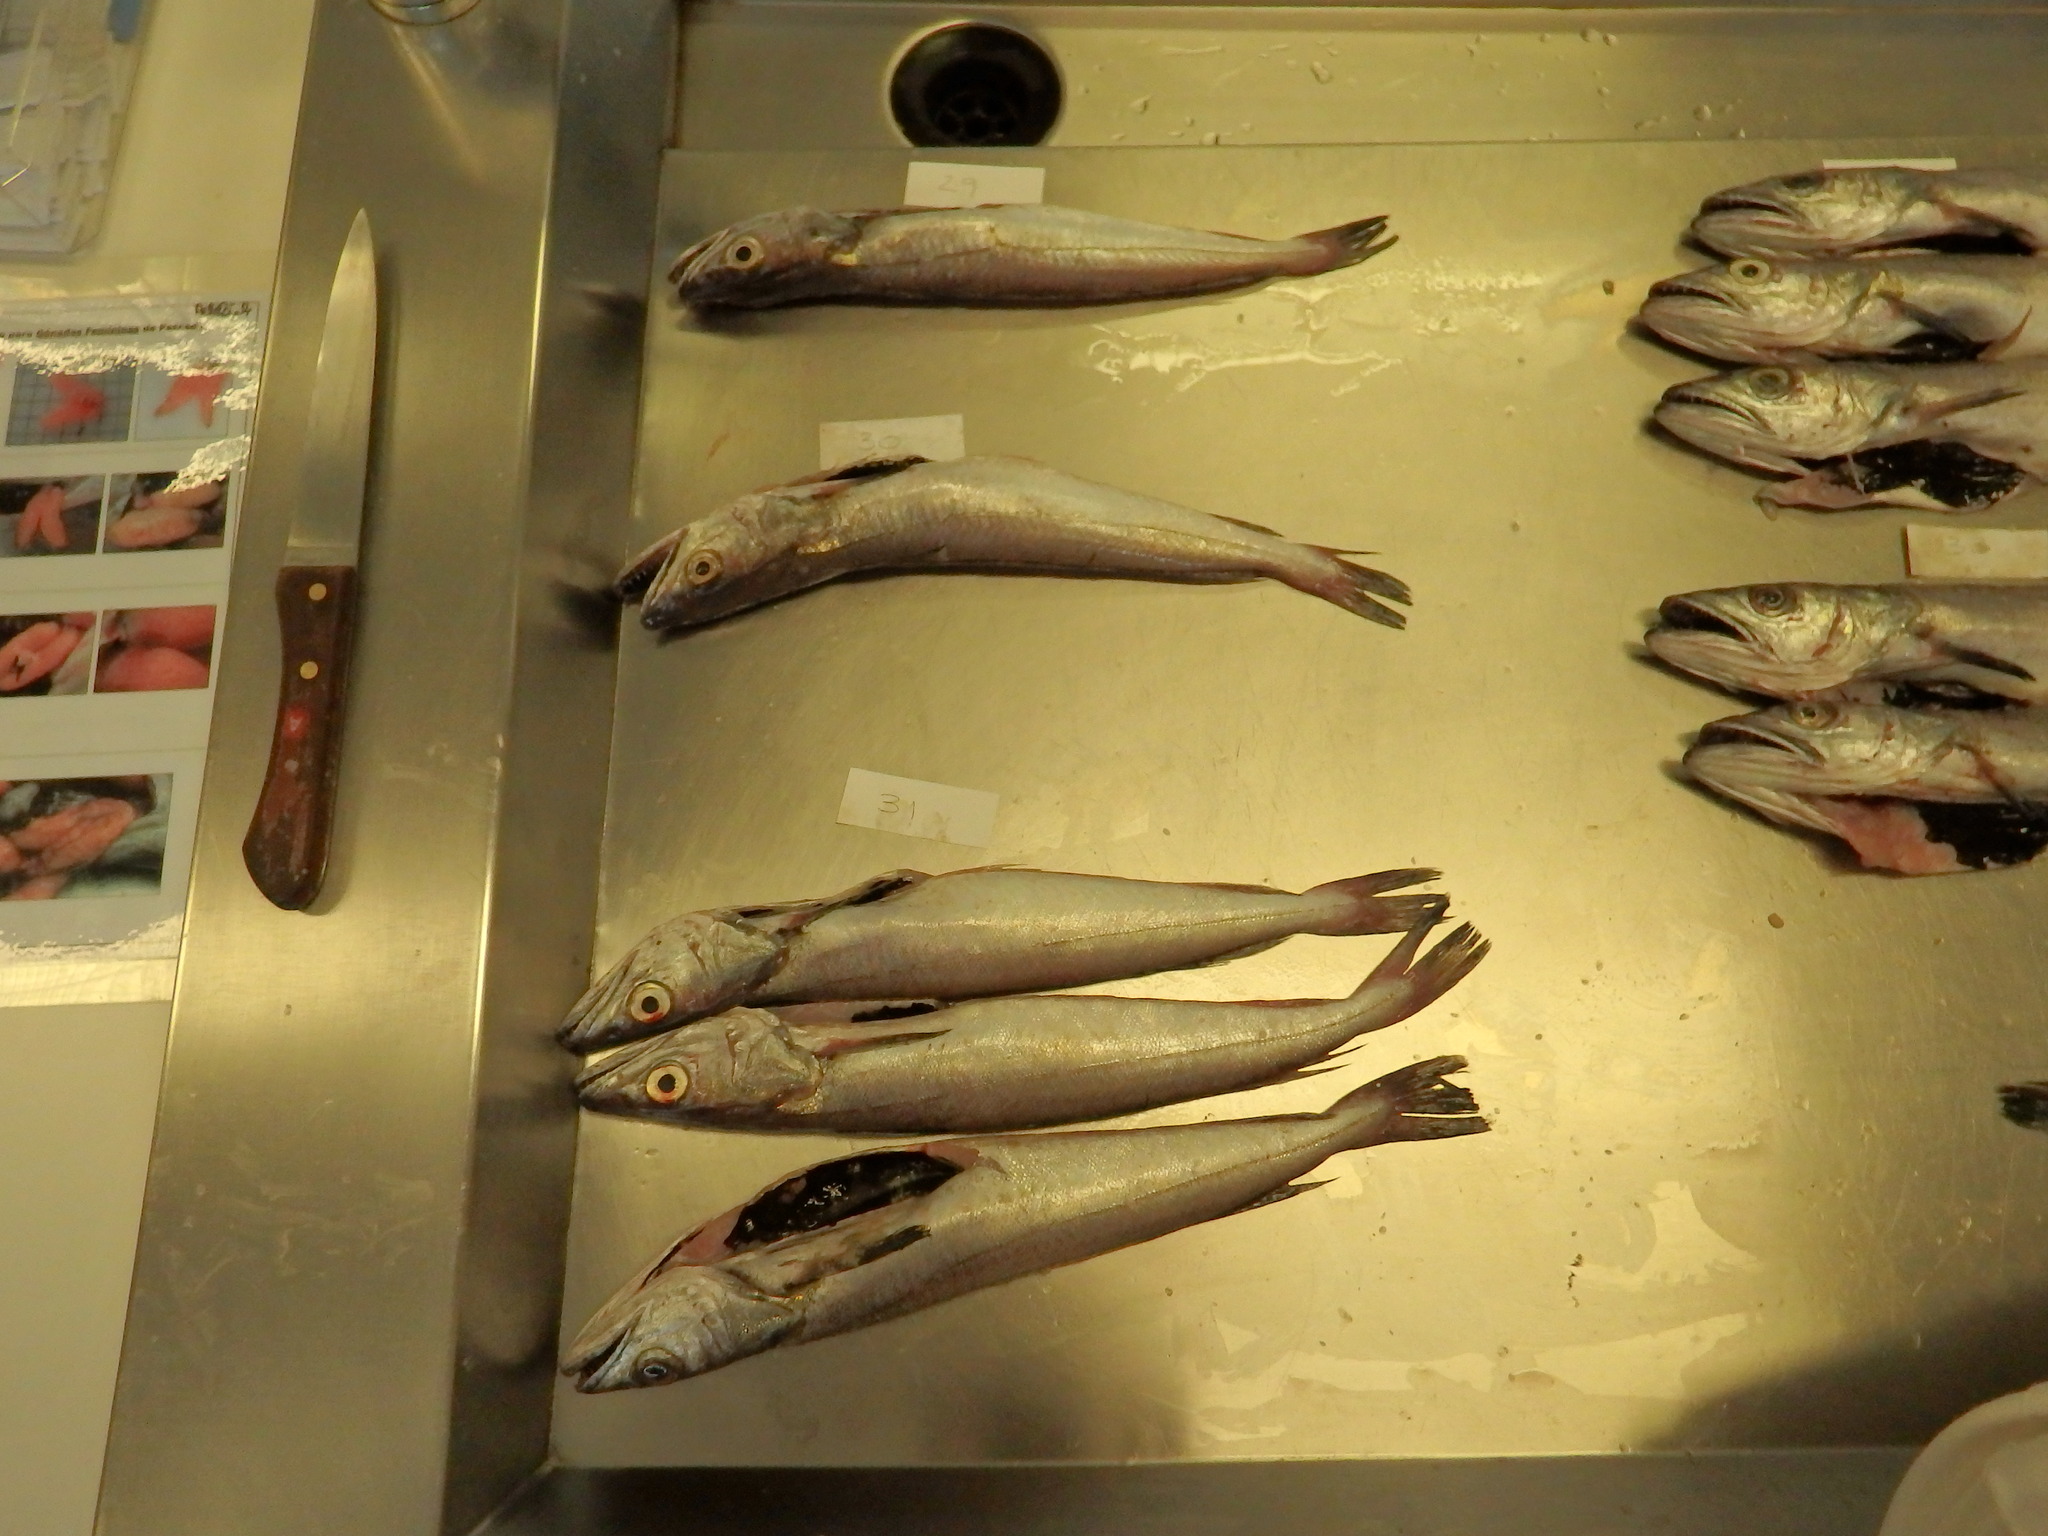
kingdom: Animalia
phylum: Chordata
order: Gadiformes
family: Merlucciidae
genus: Merluccius
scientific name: Merluccius merluccius
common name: European hake
